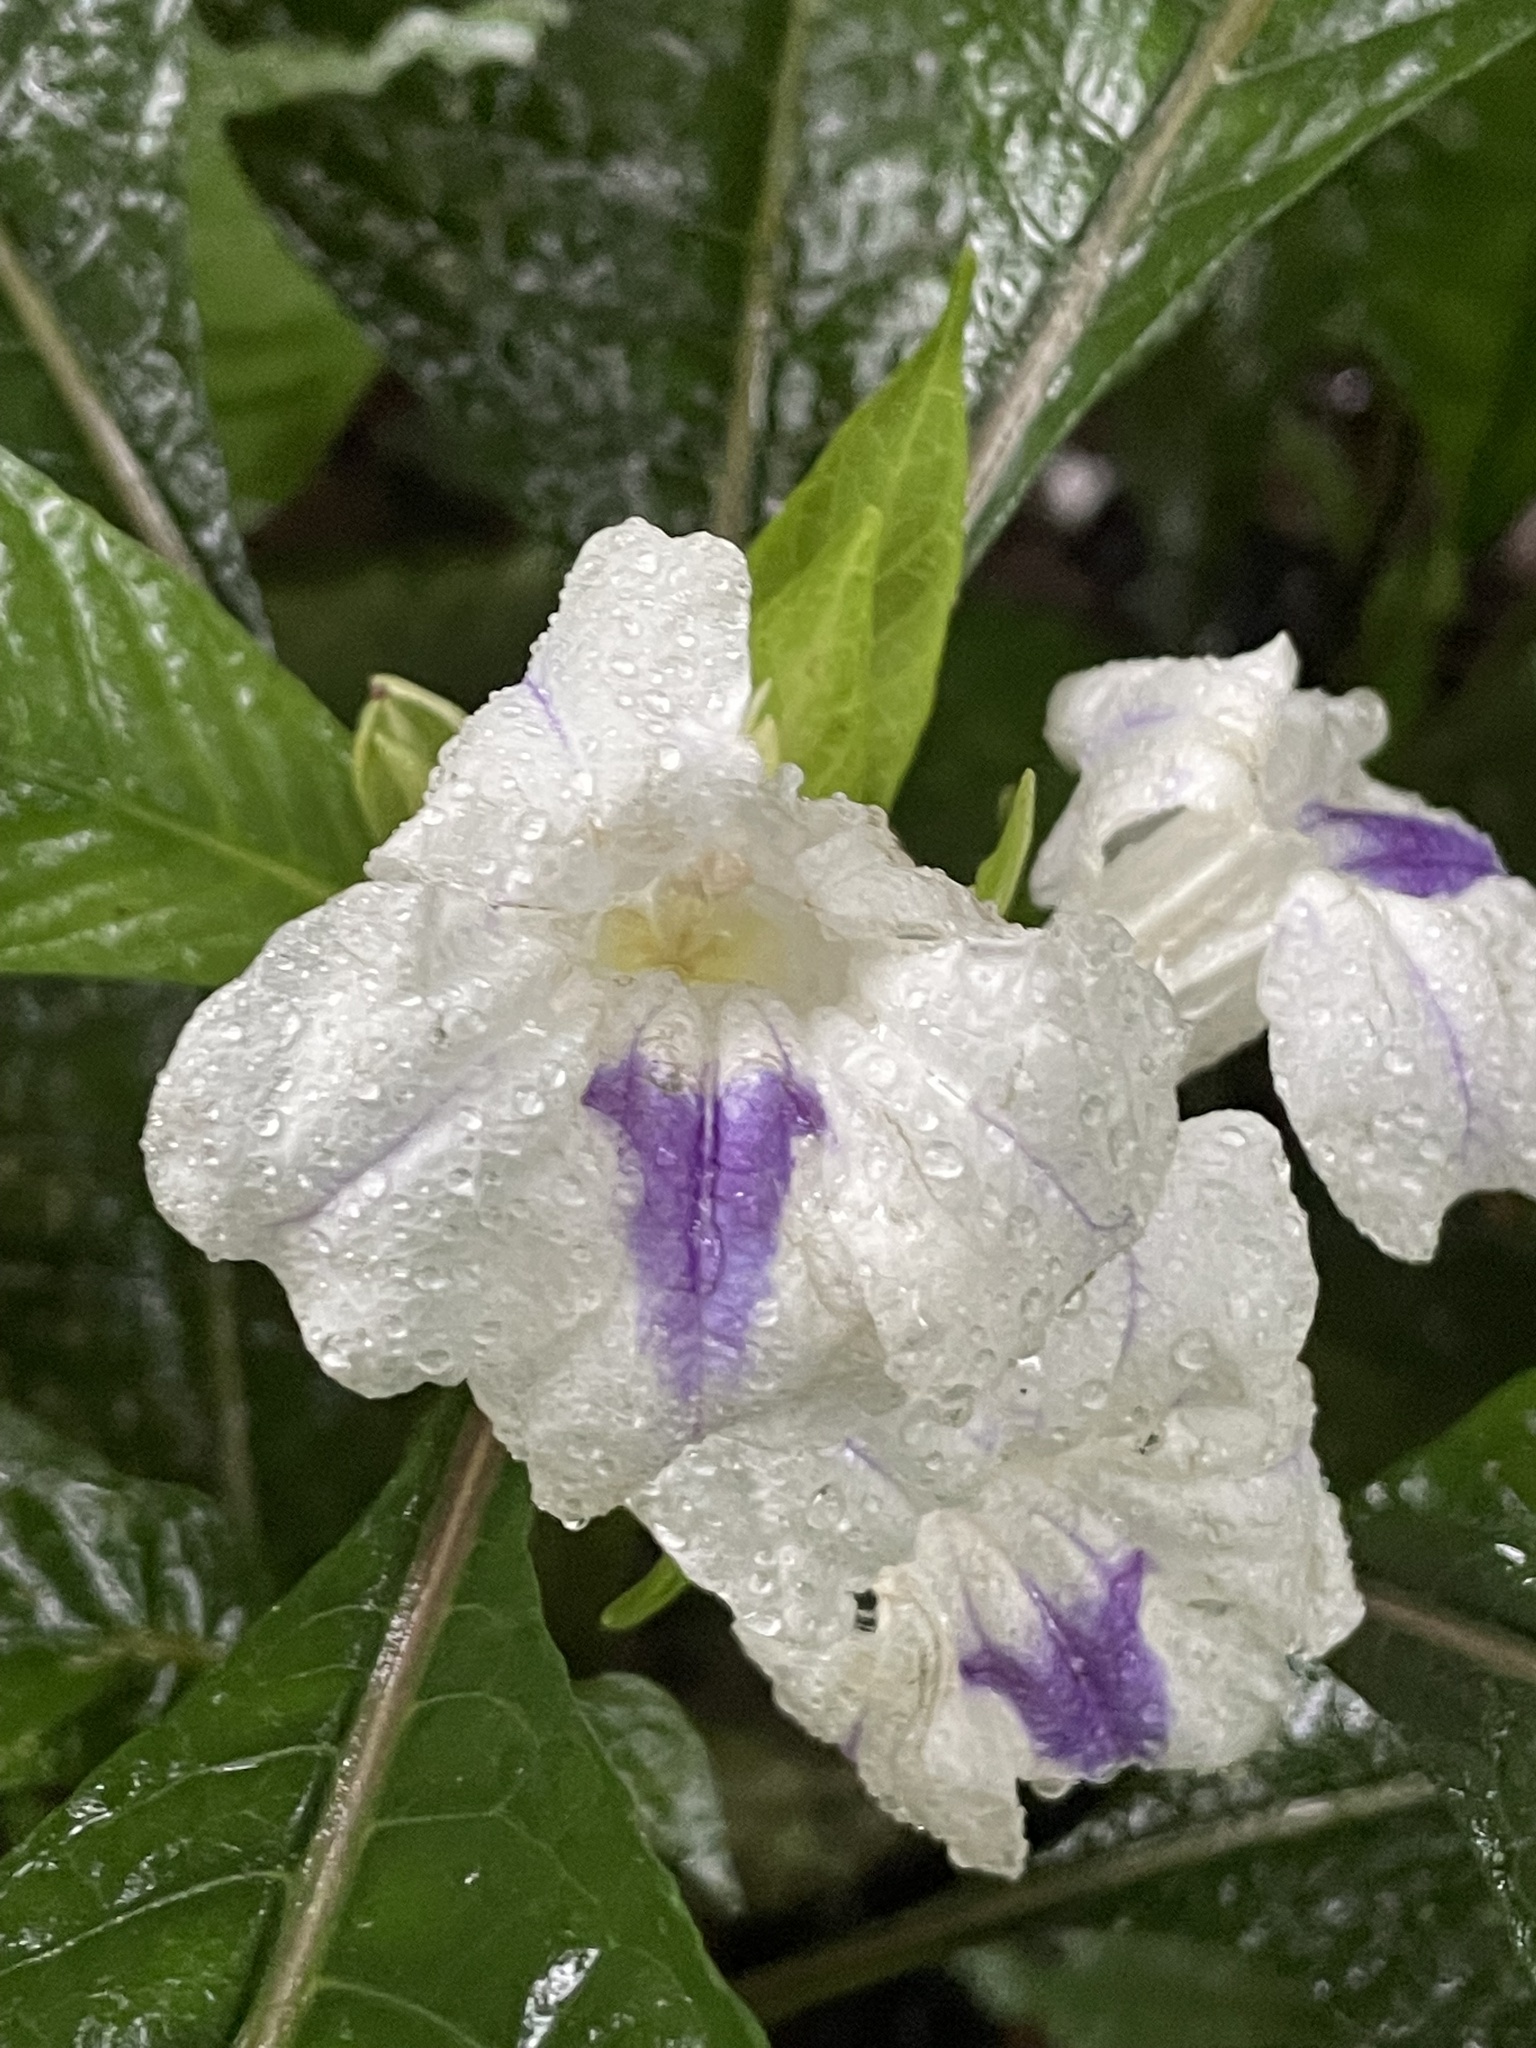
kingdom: Plantae
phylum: Tracheophyta
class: Magnoliopsida
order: Lamiales
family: Acanthaceae
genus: Ruellia
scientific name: Ruellia tubiflora
